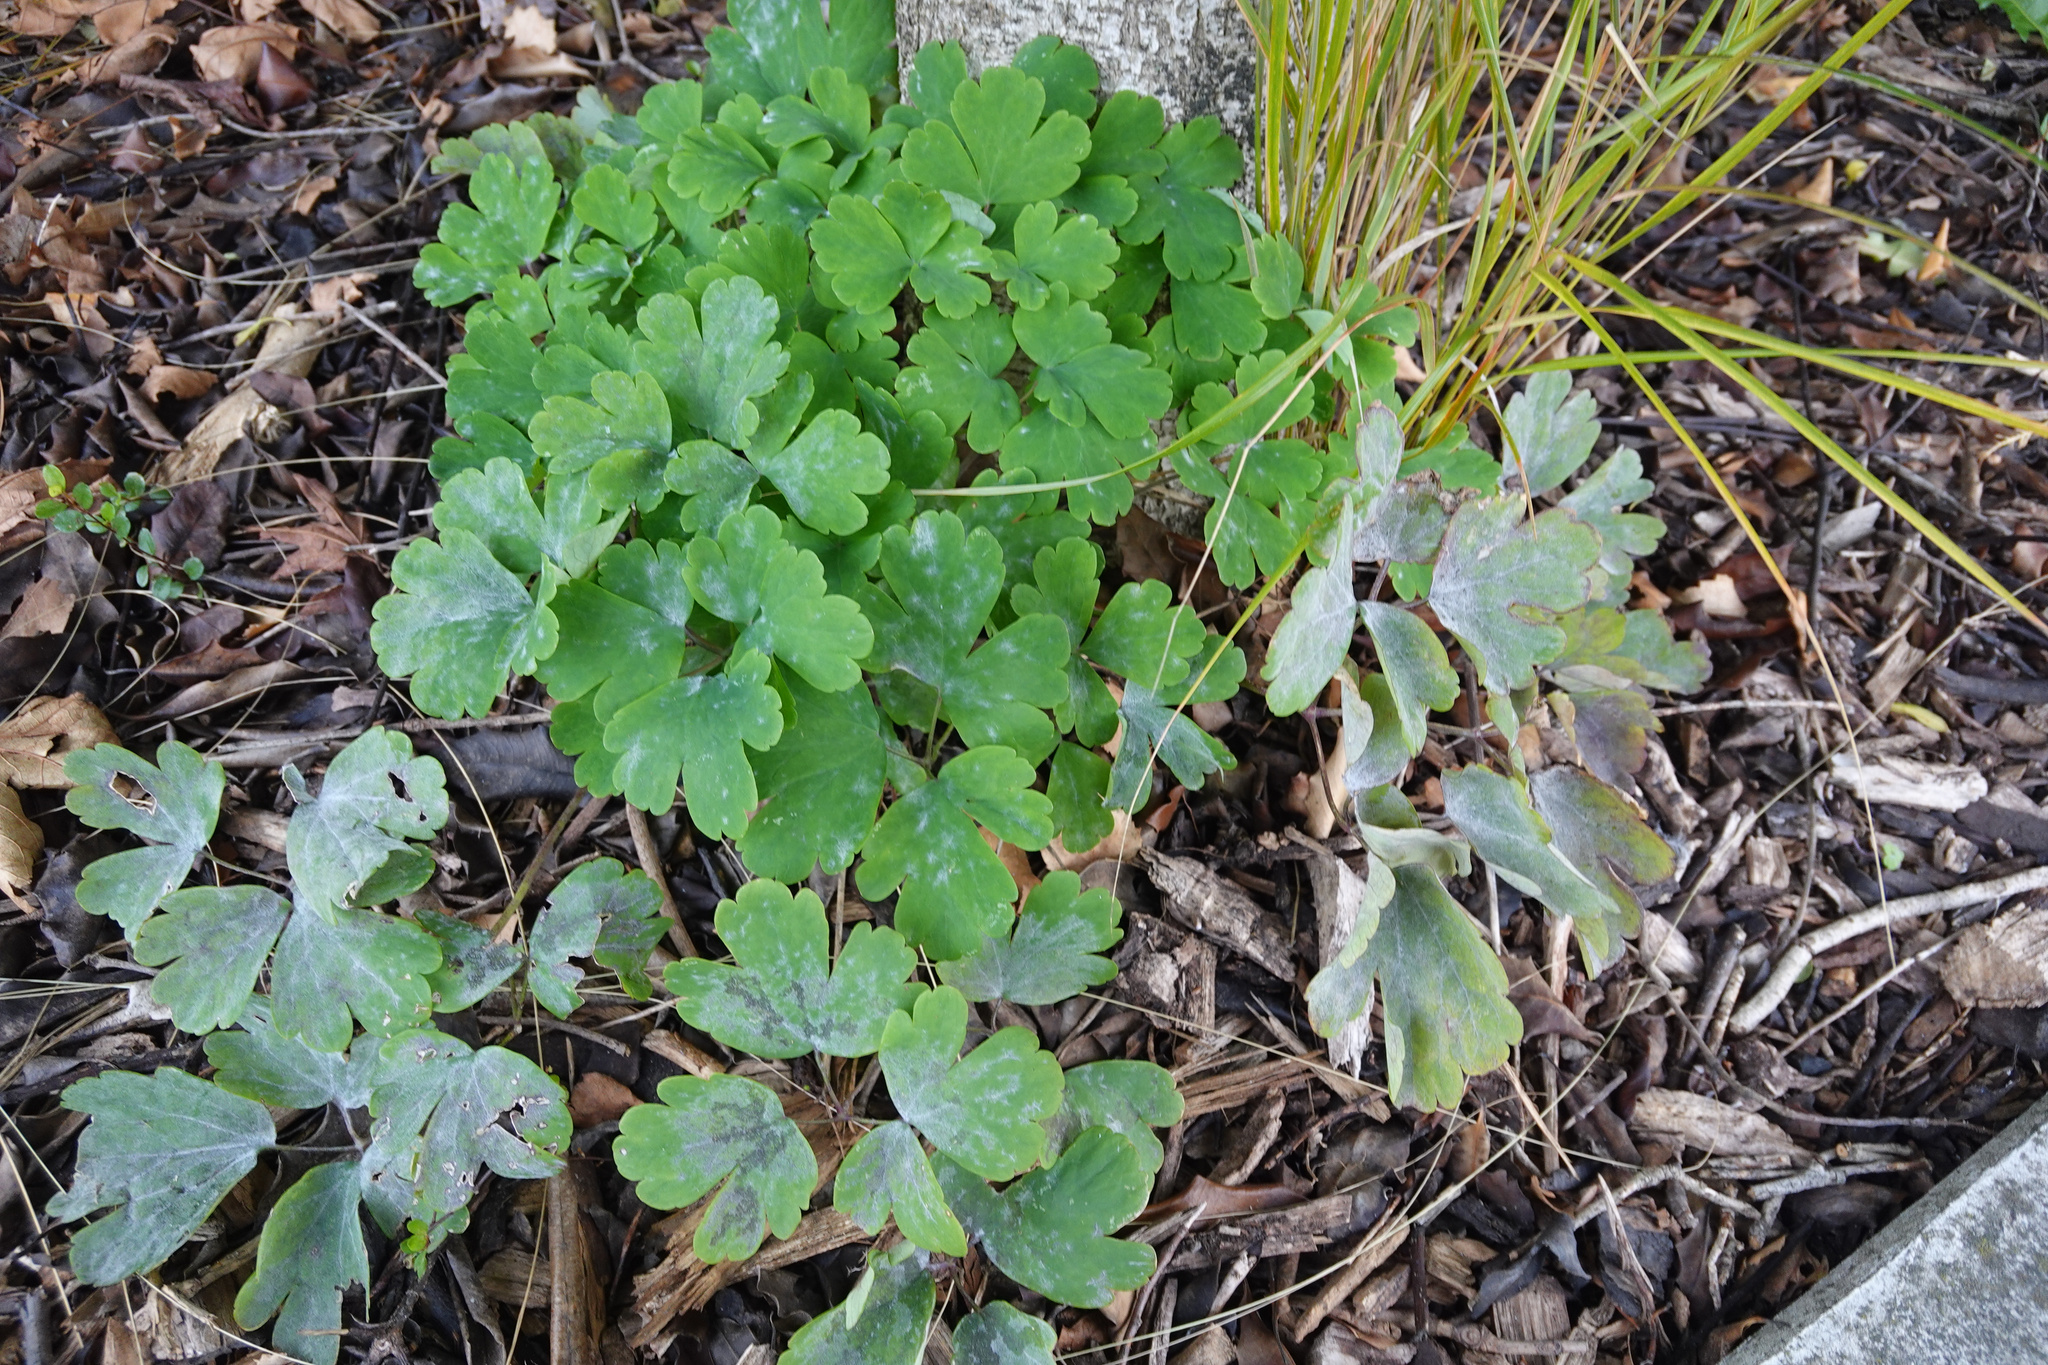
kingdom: Plantae
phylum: Tracheophyta
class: Magnoliopsida
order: Ranunculales
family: Ranunculaceae
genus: Aquilegia
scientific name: Aquilegia vulgaris
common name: Columbine
